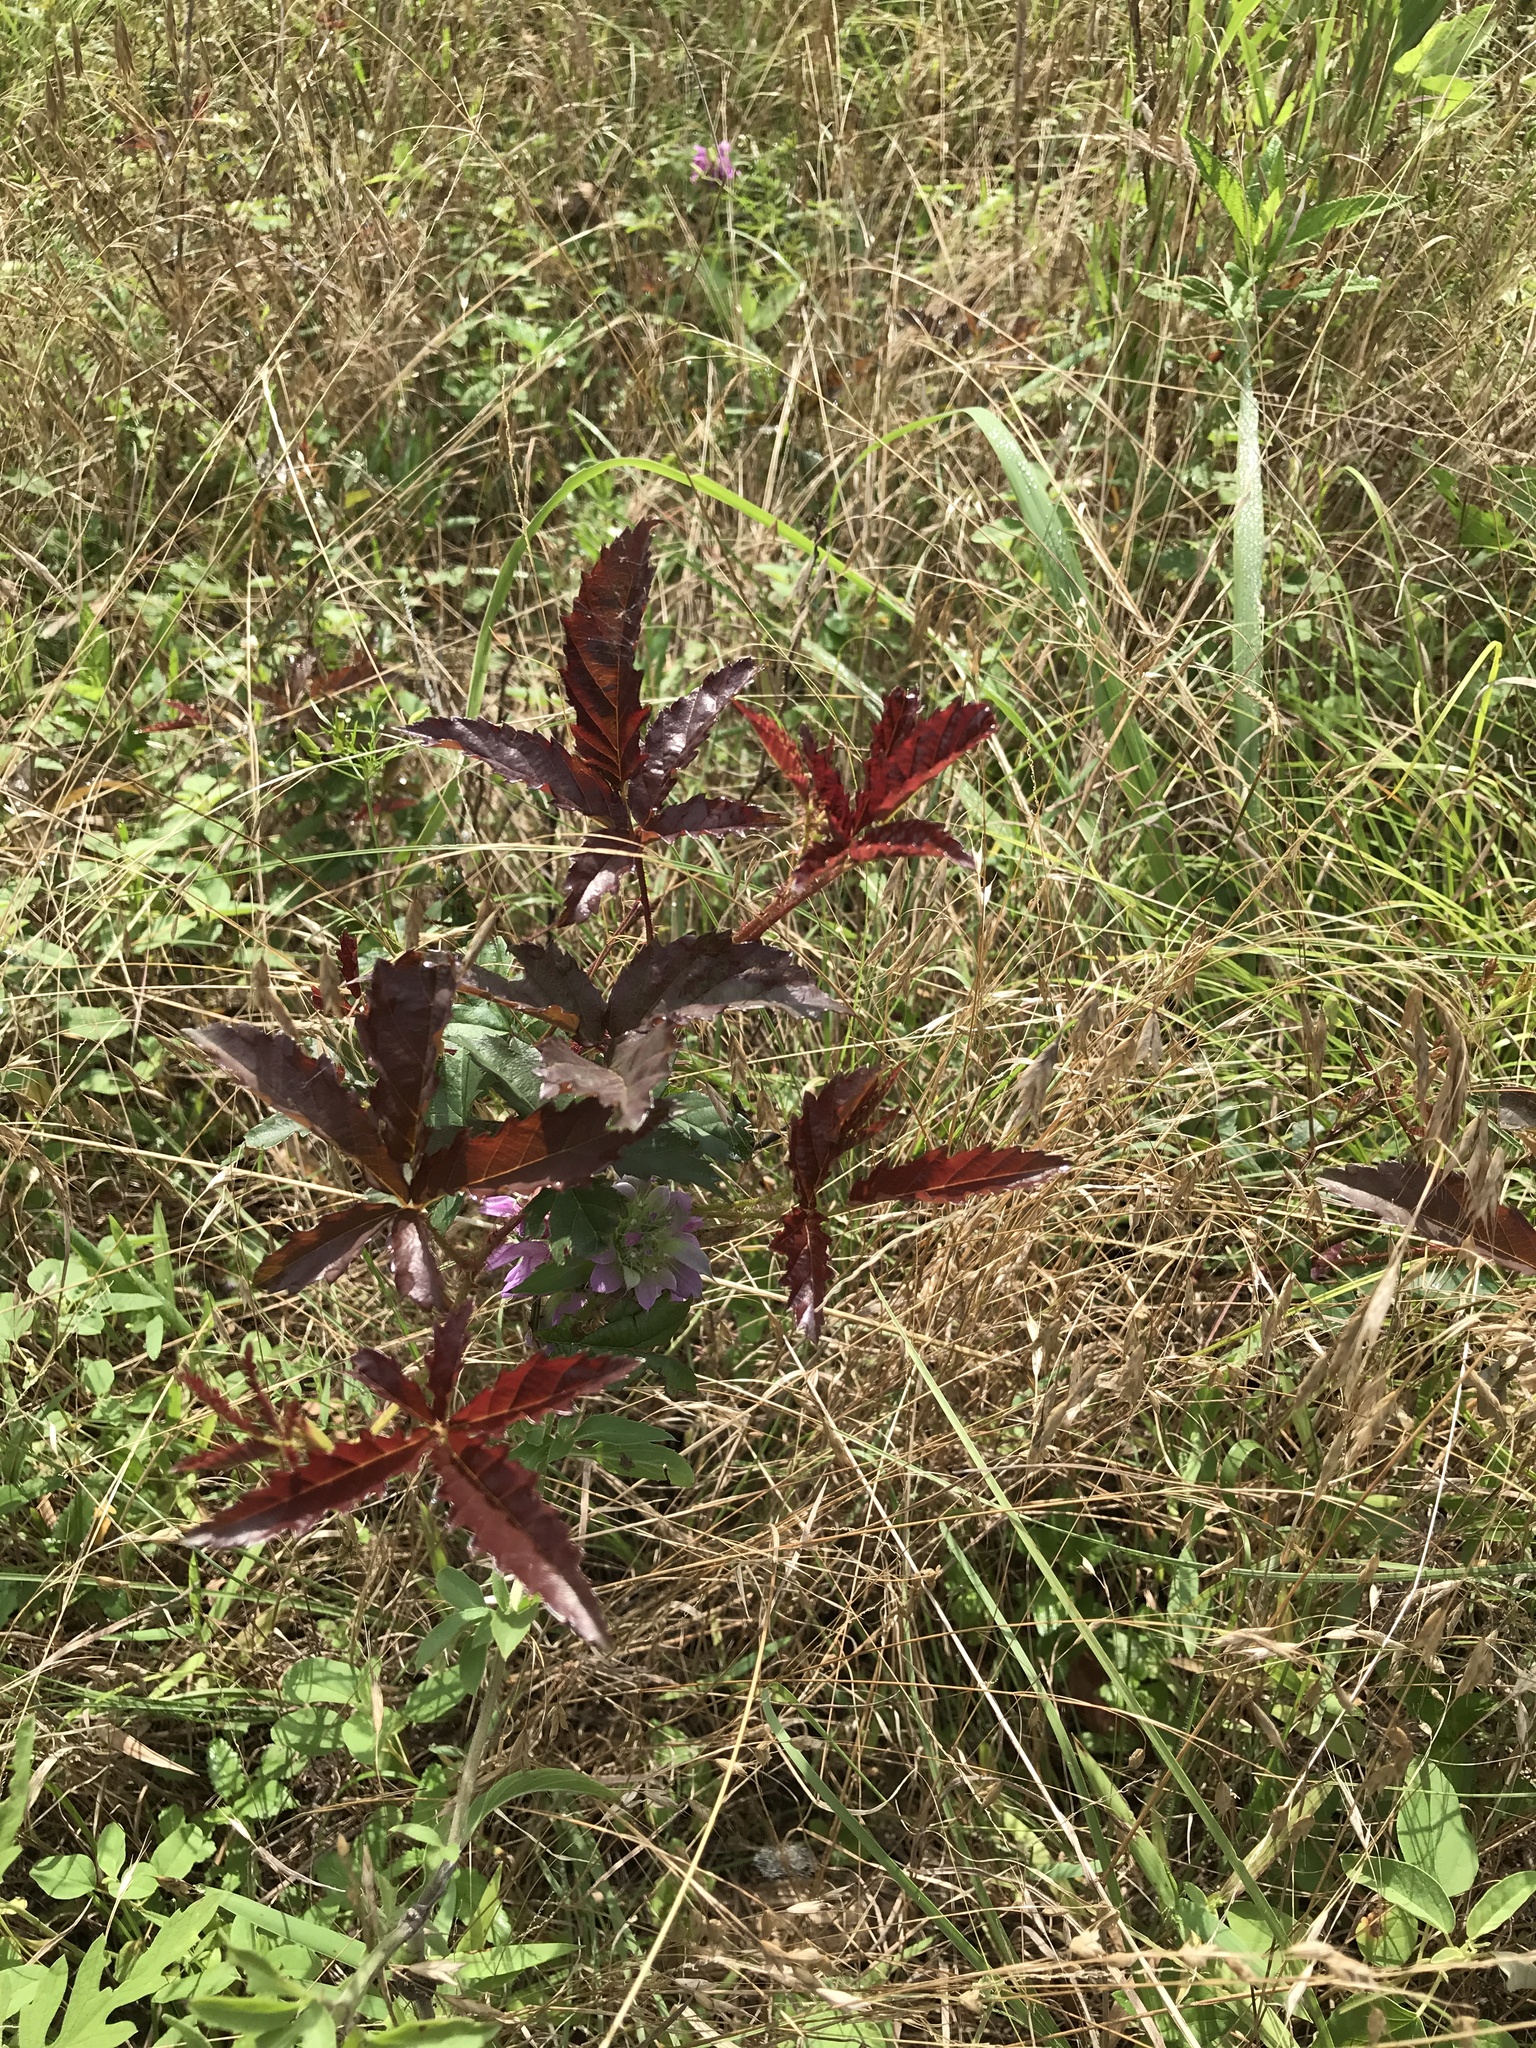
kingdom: Plantae
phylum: Tracheophyta
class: Magnoliopsida
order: Rosales
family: Rosaceae
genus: Rubus
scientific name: Rubus trivialis
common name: Southern dewberry
